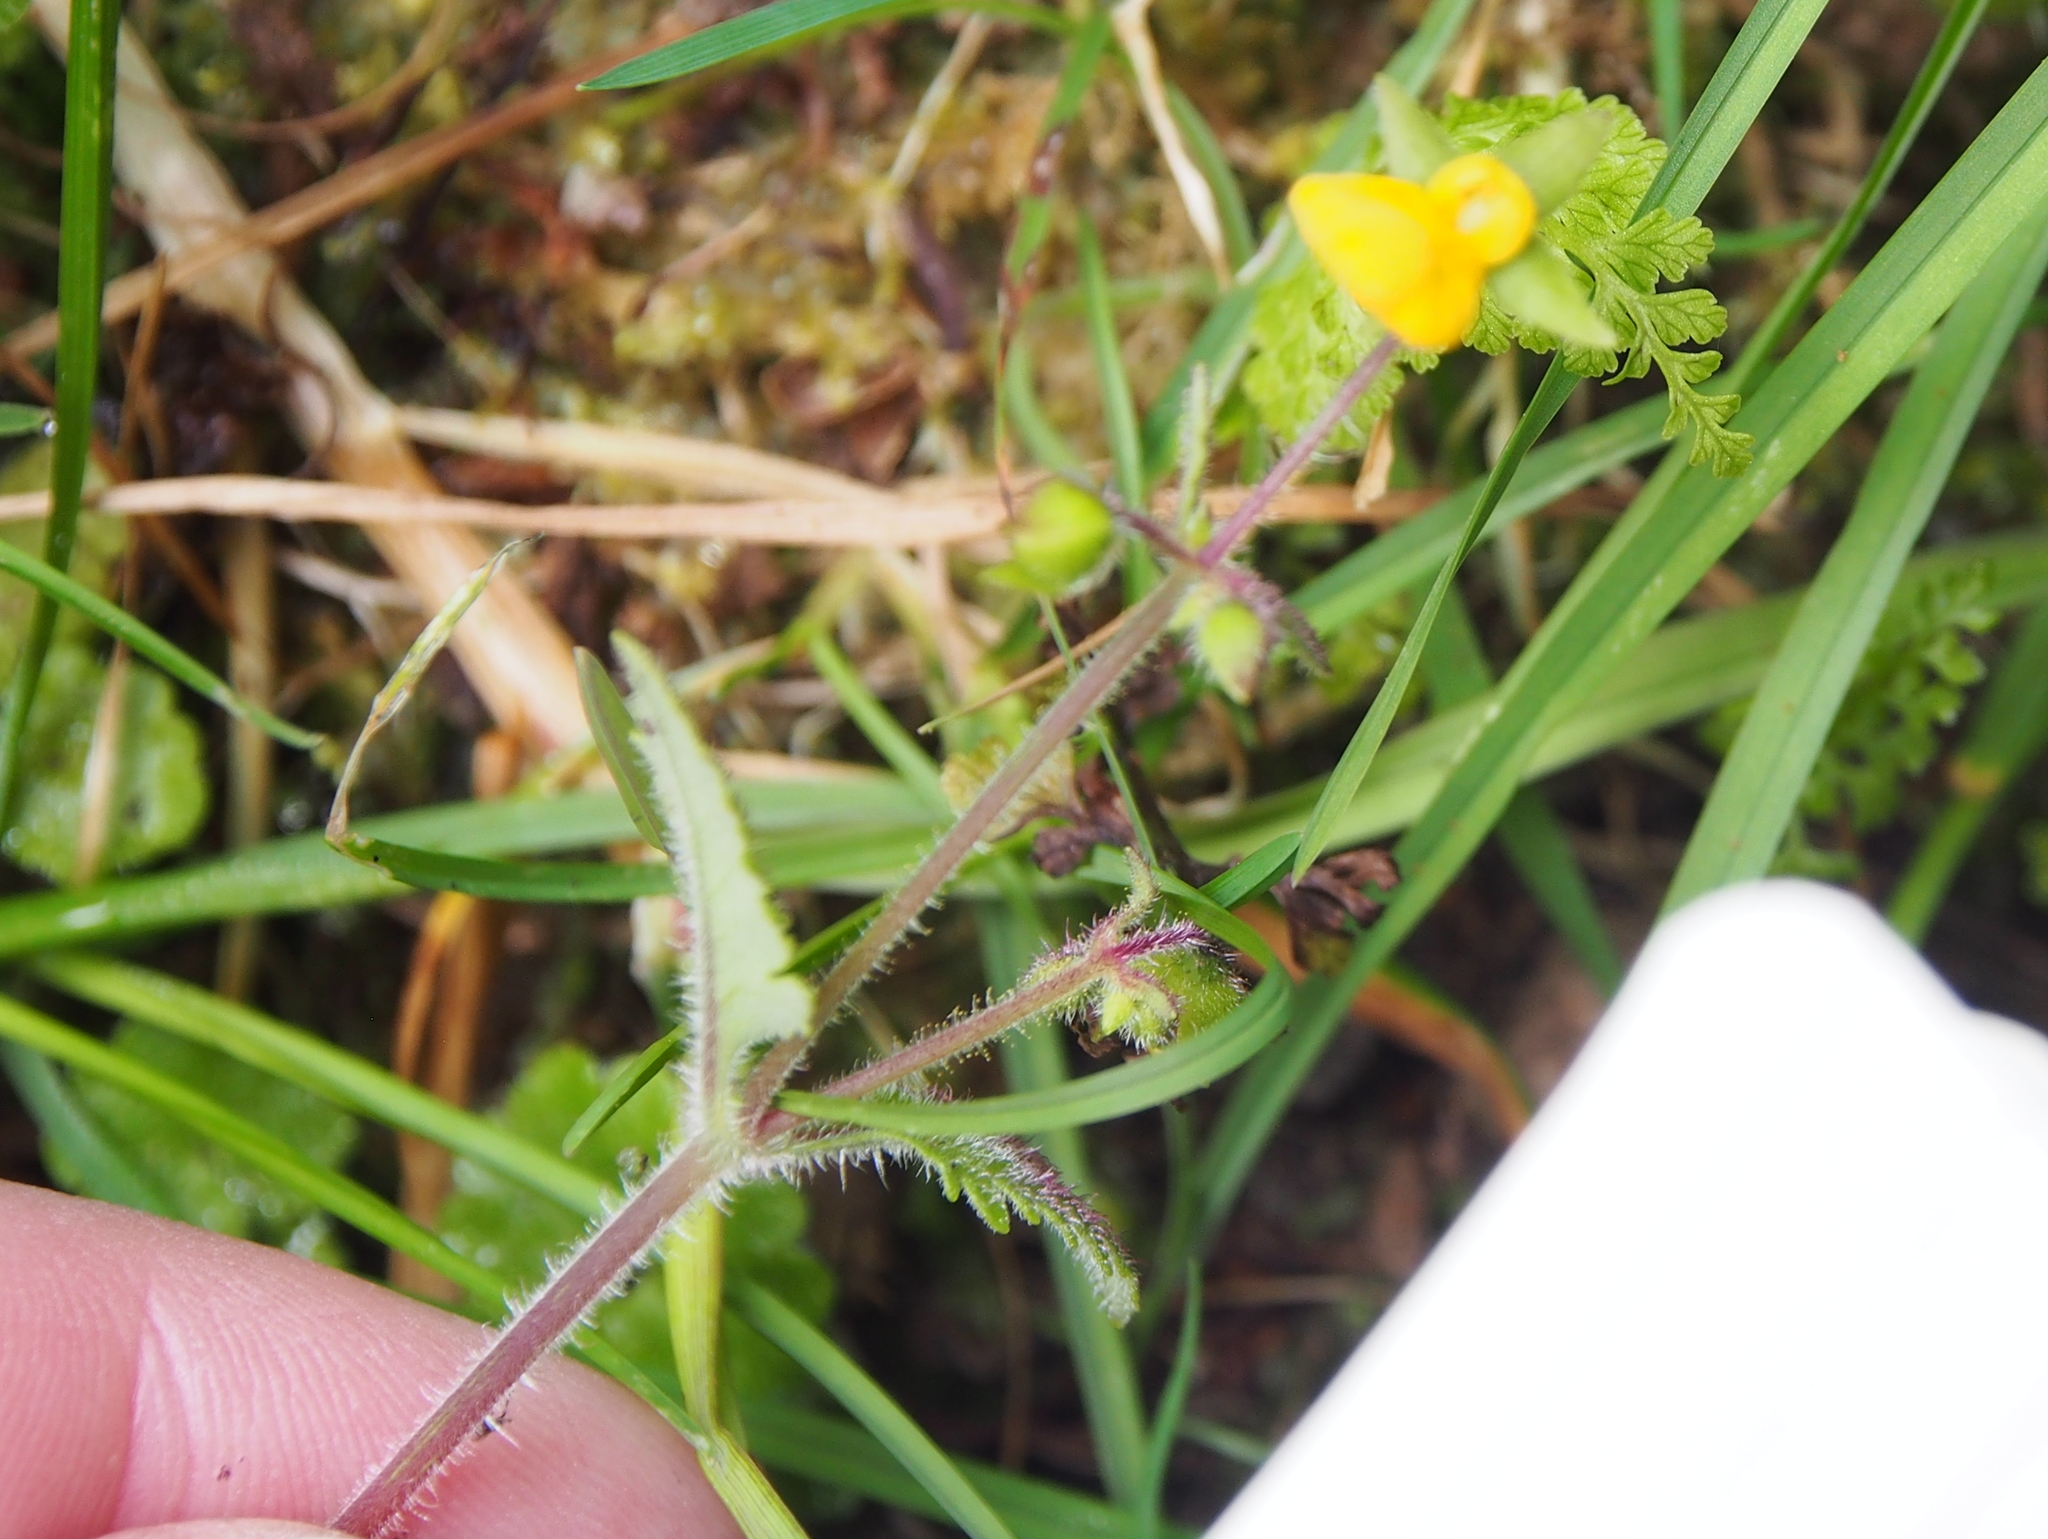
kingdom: Plantae
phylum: Tracheophyta
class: Magnoliopsida
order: Lamiales
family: Calceolariaceae
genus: Calceolaria
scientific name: Calceolaria mexicana
